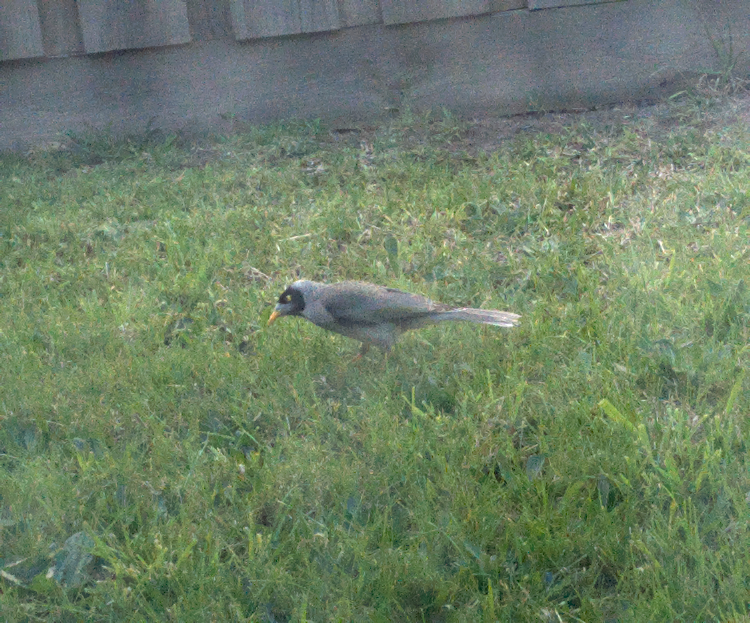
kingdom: Animalia
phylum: Chordata
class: Aves
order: Passeriformes
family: Meliphagidae
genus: Manorina
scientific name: Manorina melanocephala
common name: Noisy miner
